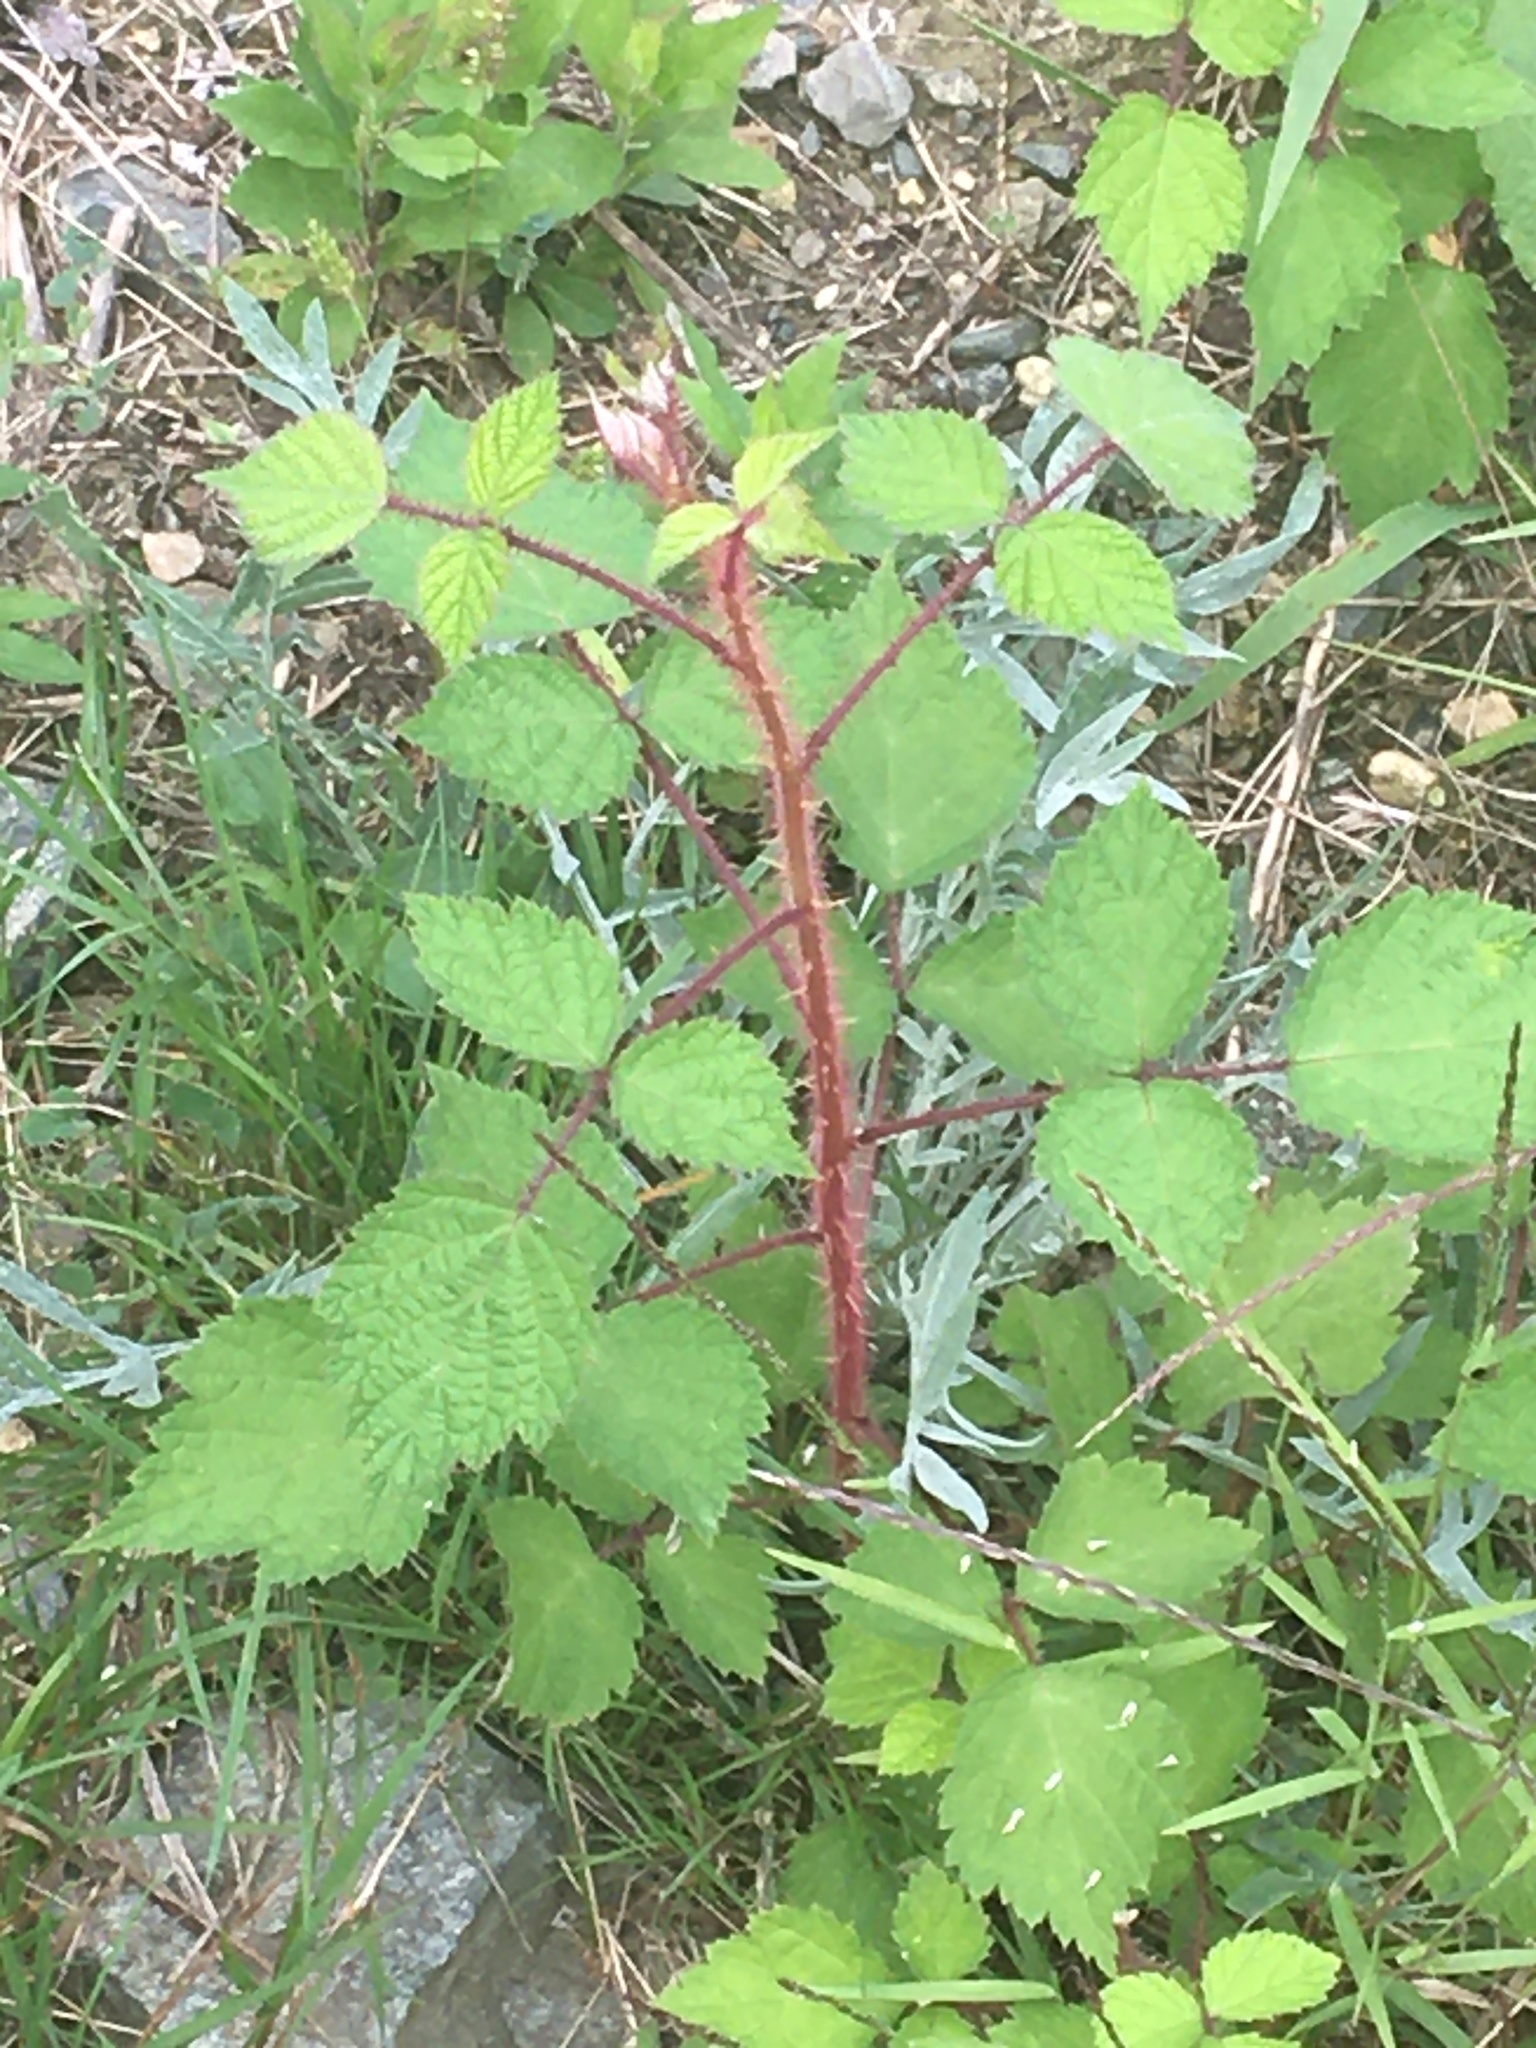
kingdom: Plantae
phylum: Tracheophyta
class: Magnoliopsida
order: Rosales
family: Rosaceae
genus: Rubus
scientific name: Rubus phoenicolasius
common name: Japanese wineberry
